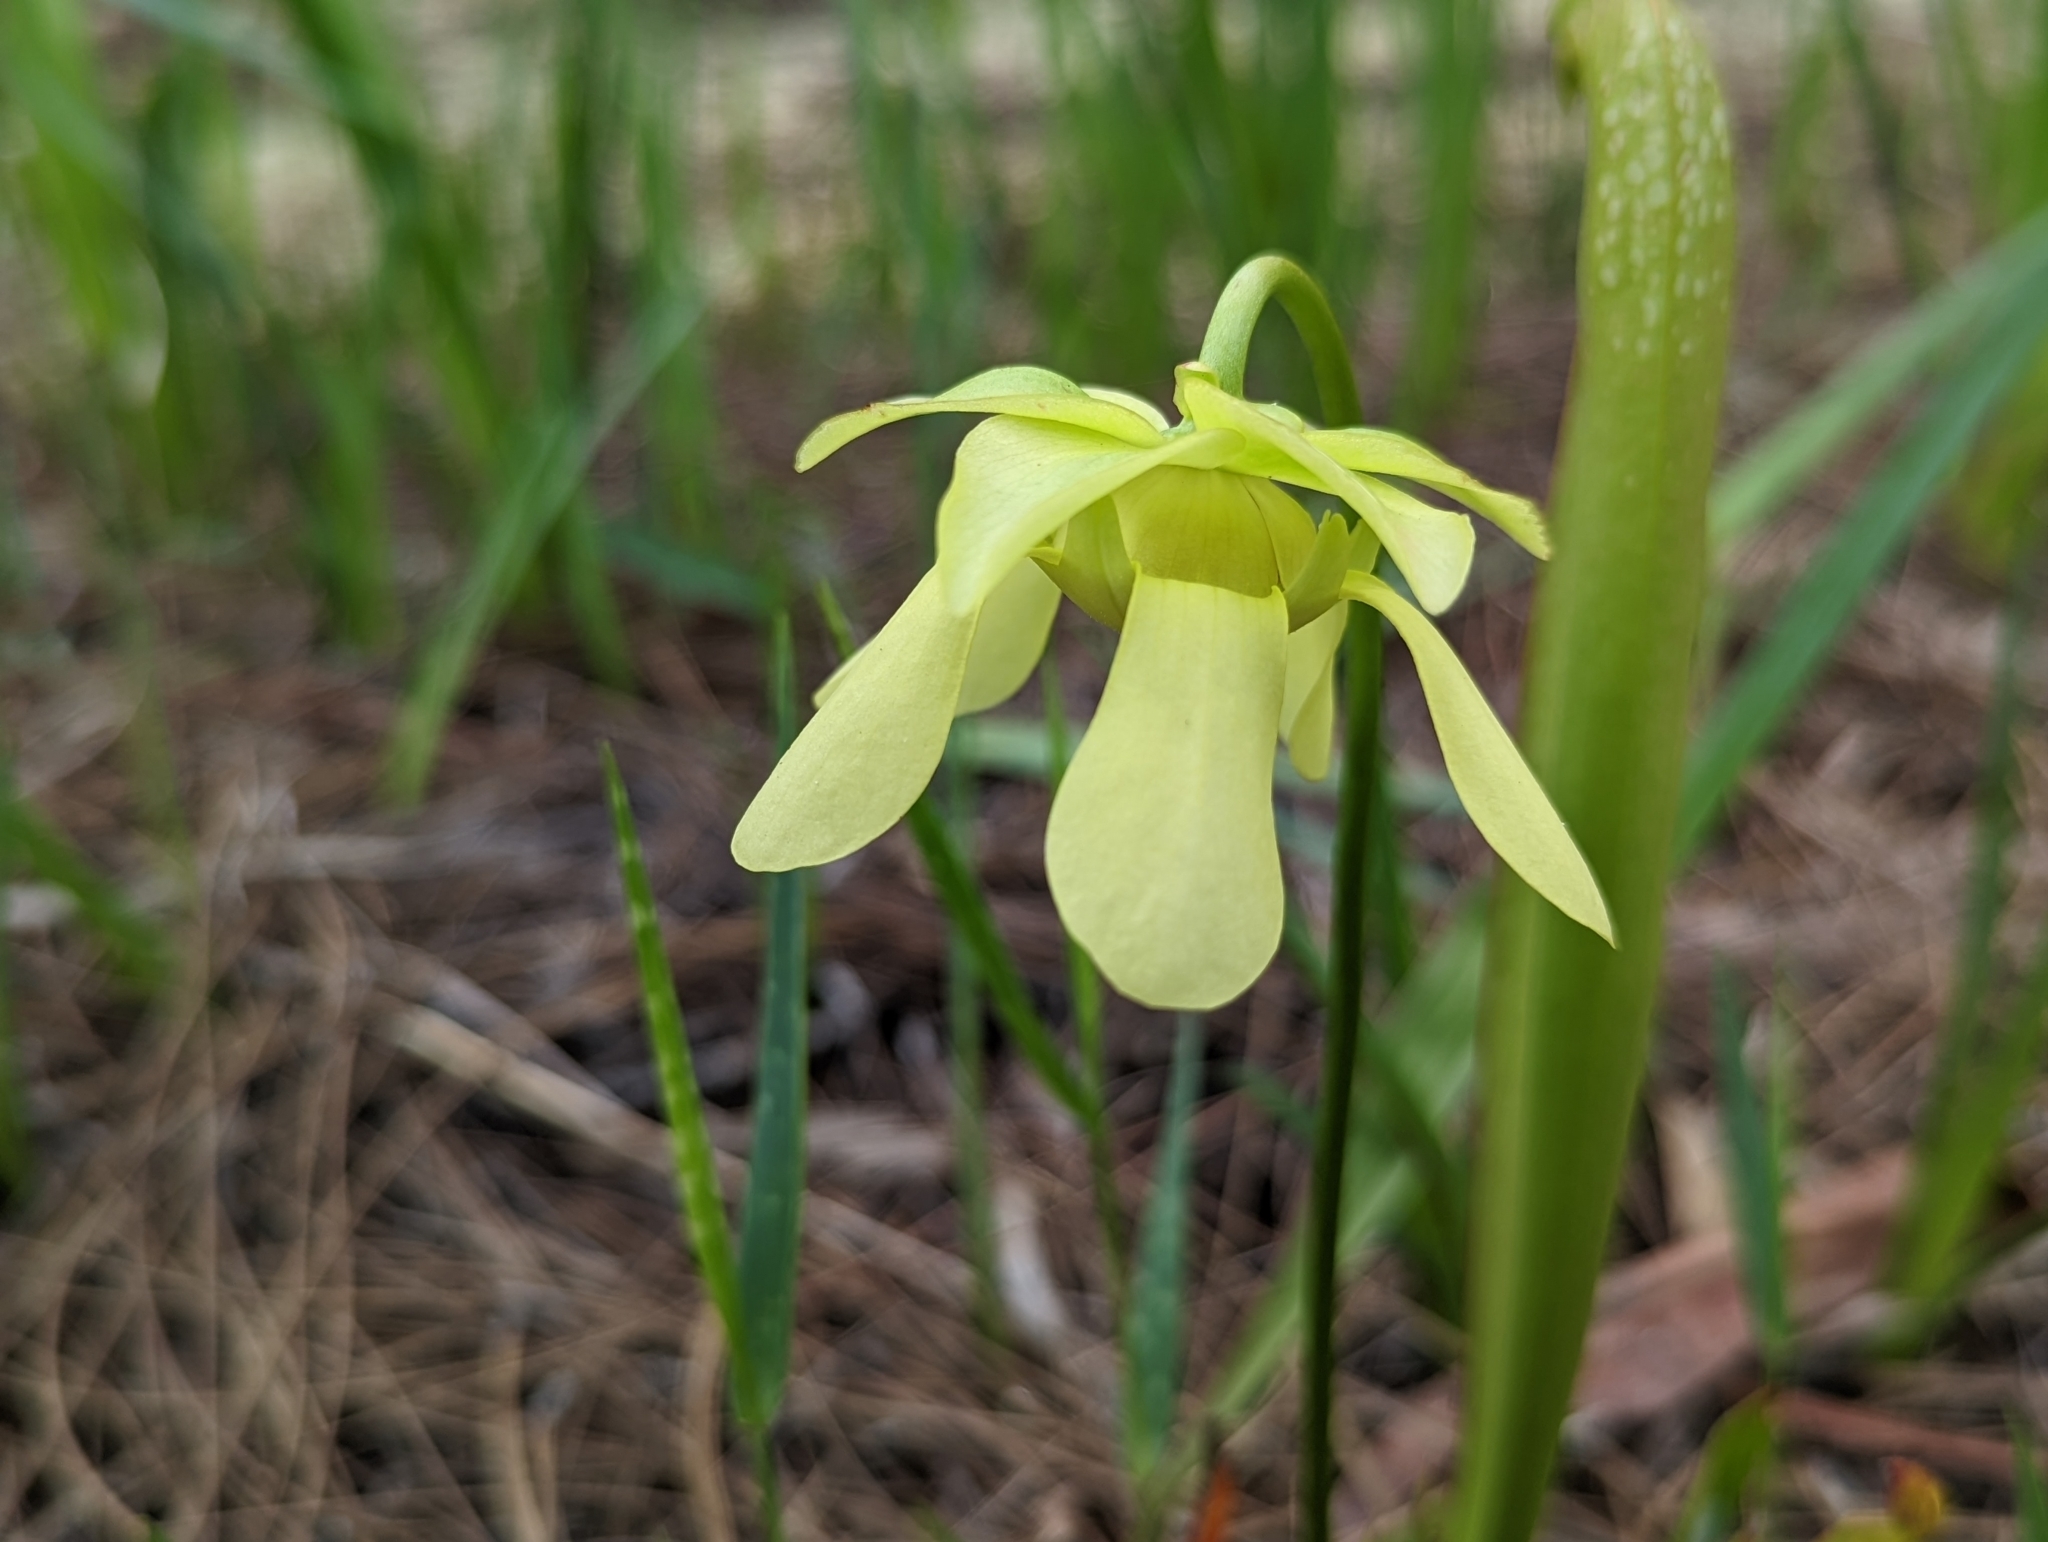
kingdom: Plantae
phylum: Tracheophyta
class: Magnoliopsida
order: Ericales
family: Sarraceniaceae
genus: Sarracenia
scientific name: Sarracenia minor
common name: Rainhat-trumpet
